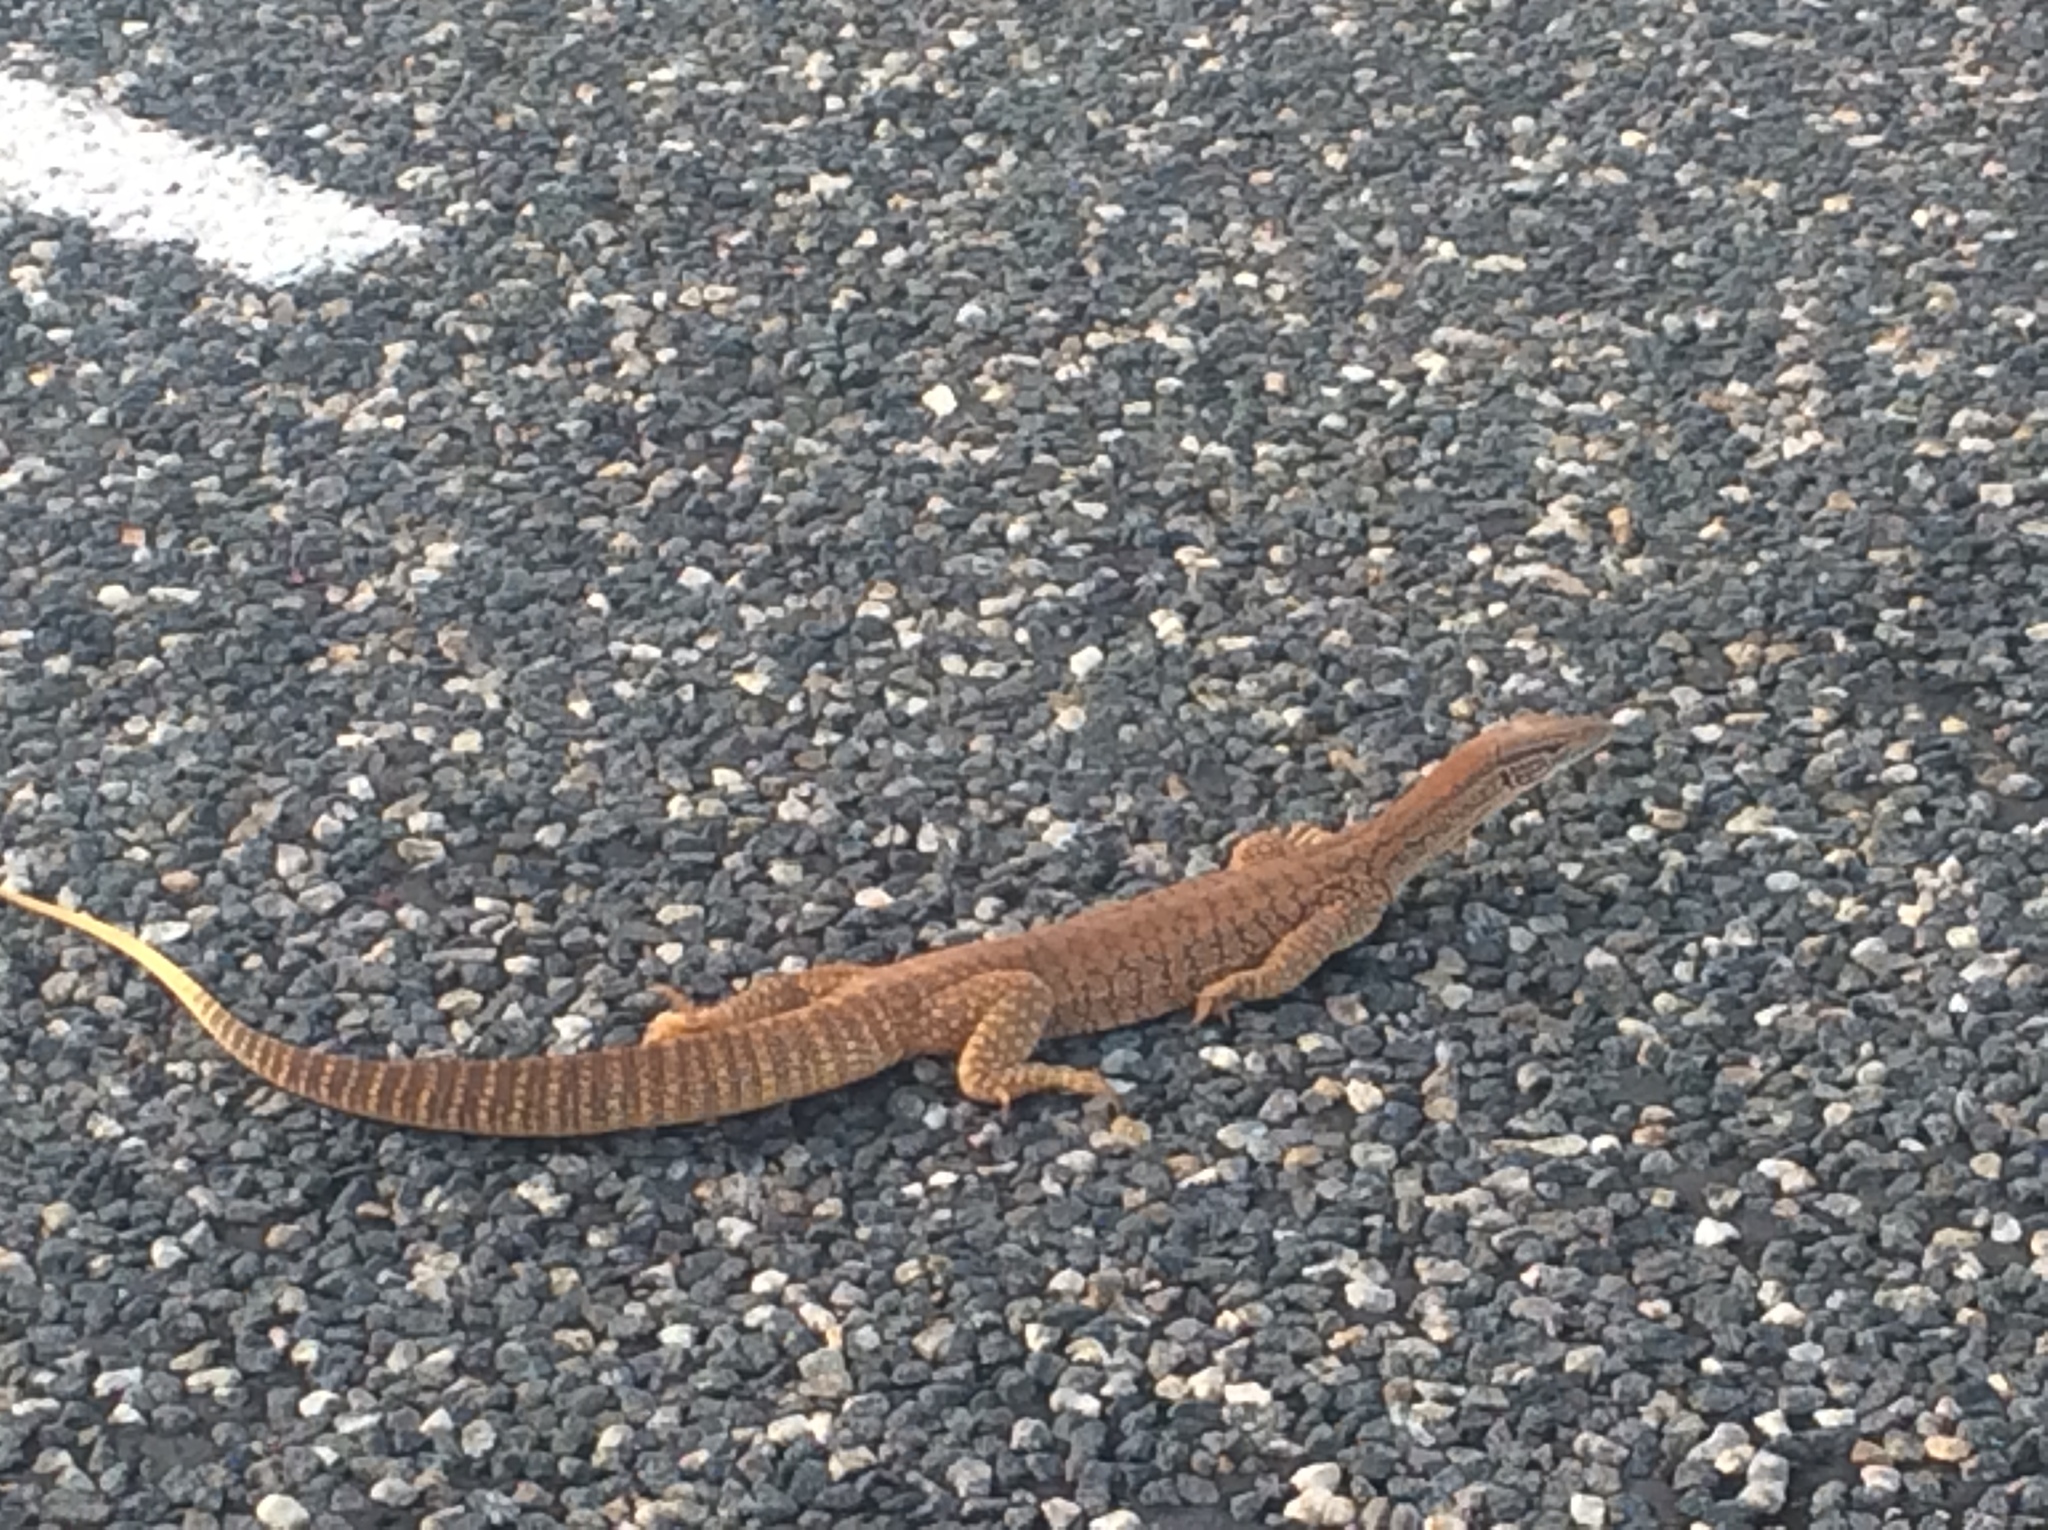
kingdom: Animalia
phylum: Chordata
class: Squamata
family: Varanidae
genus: Varanus
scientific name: Varanus gouldii
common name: Gould's goanna
